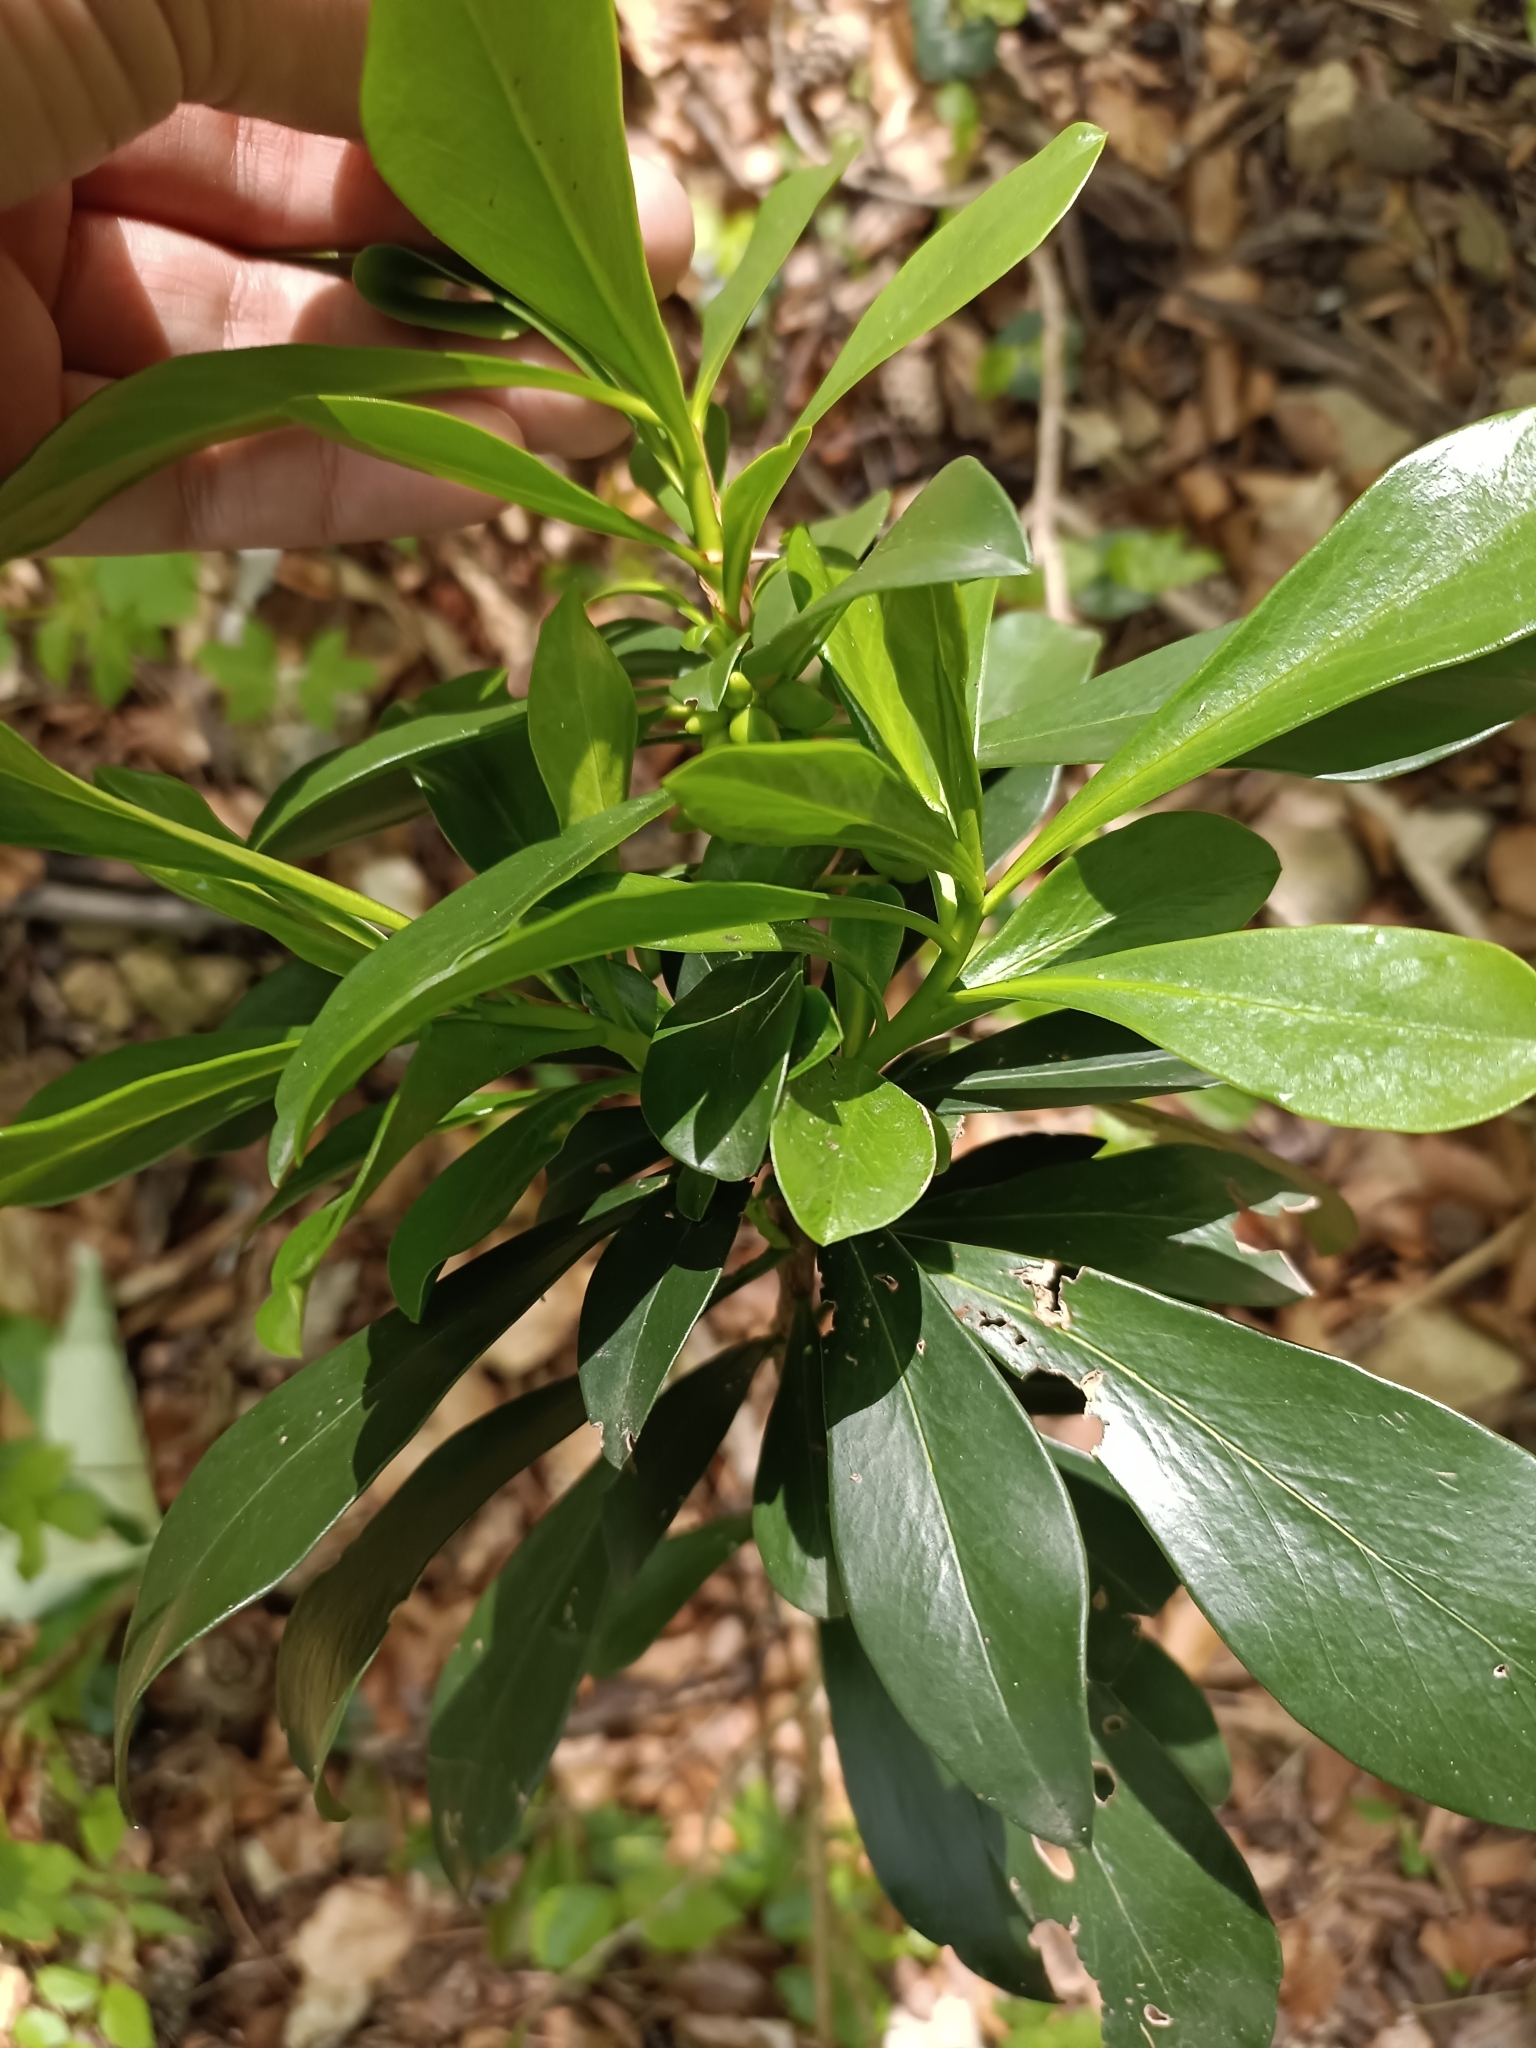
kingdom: Plantae
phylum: Tracheophyta
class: Magnoliopsida
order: Malvales
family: Thymelaeaceae
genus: Daphne
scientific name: Daphne laureola
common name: Spurge-laurel
